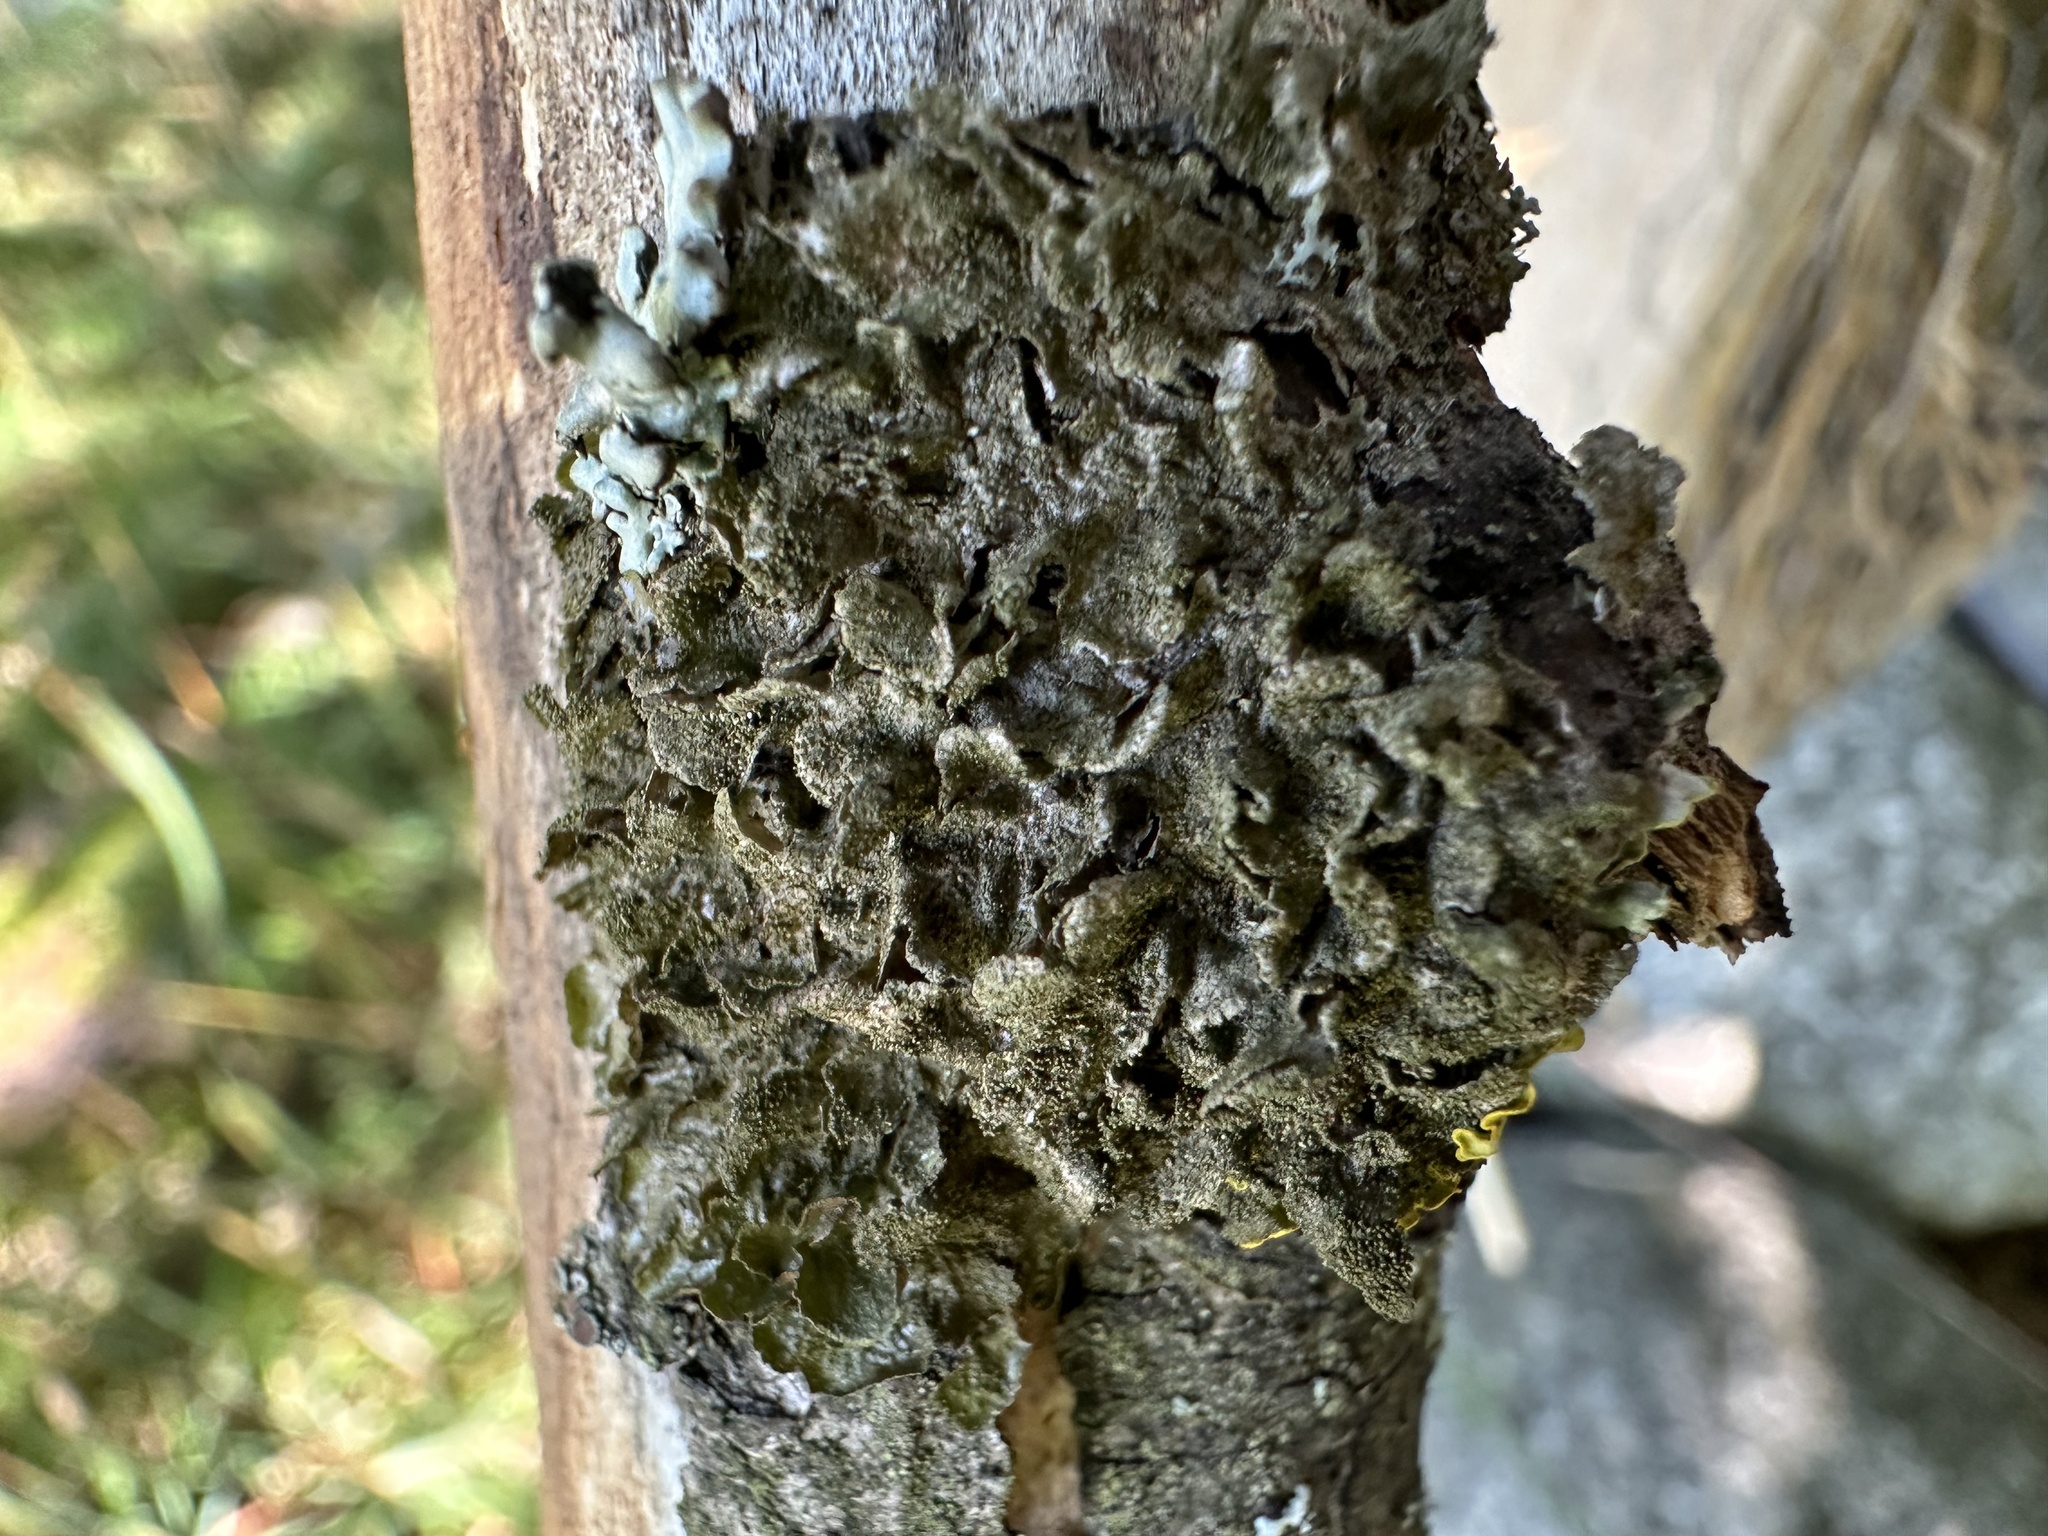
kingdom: Fungi
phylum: Ascomycota
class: Lecanoromycetes
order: Lecanorales
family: Parmeliaceae
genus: Melanohalea
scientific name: Melanohalea exasperatula
